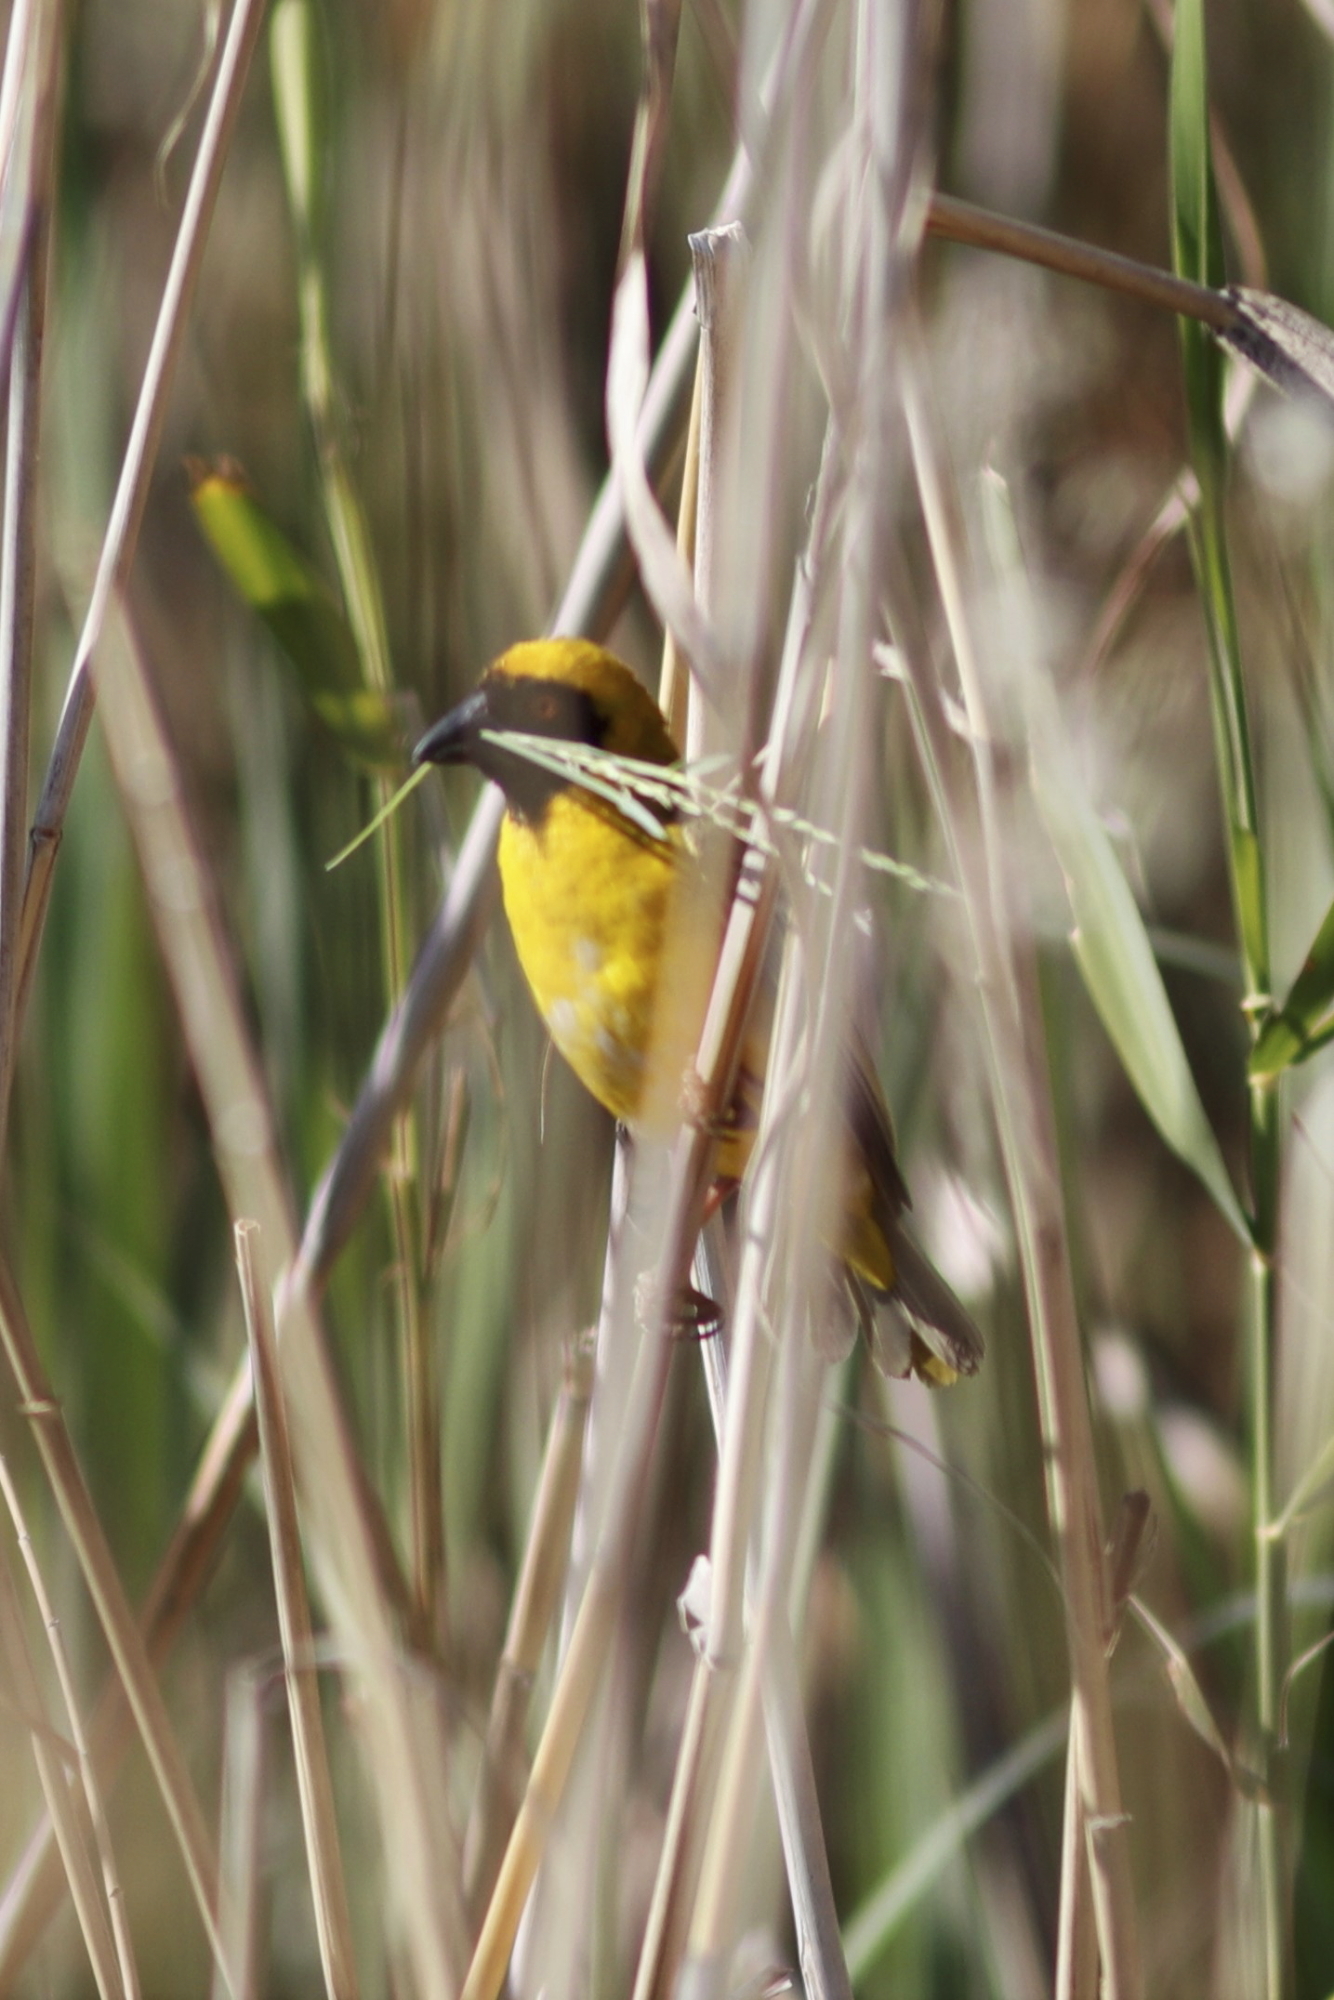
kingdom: Animalia
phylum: Chordata
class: Aves
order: Passeriformes
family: Ploceidae
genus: Ploceus
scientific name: Ploceus velatus
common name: Southern masked weaver
